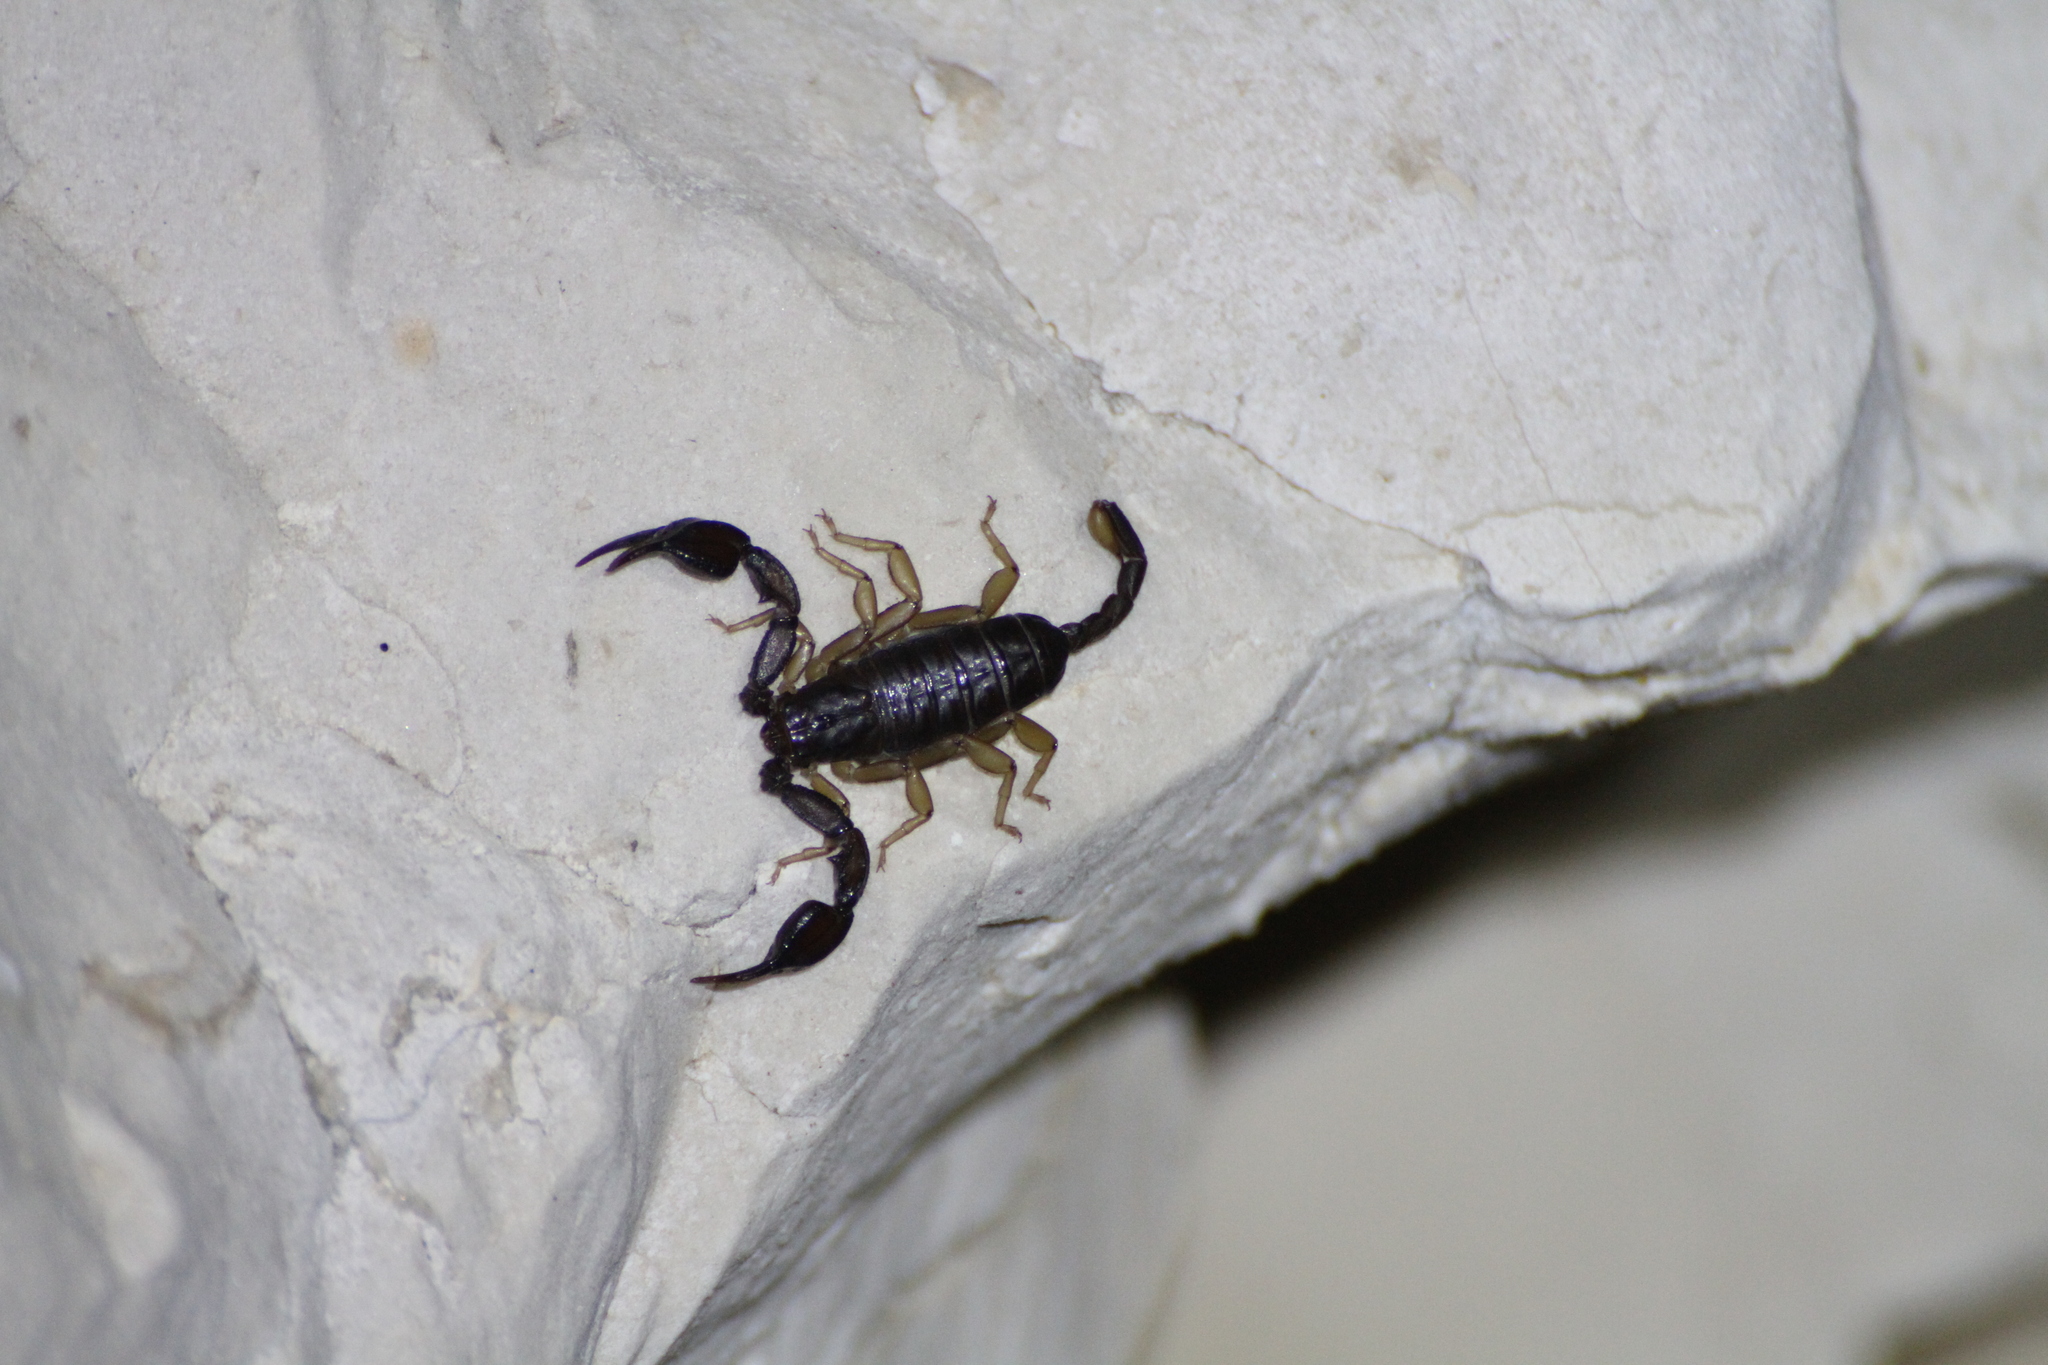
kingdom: Animalia
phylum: Arthropoda
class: Arachnida
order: Scorpiones
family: Euscorpiidae
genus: Euscorpius
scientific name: Euscorpius
